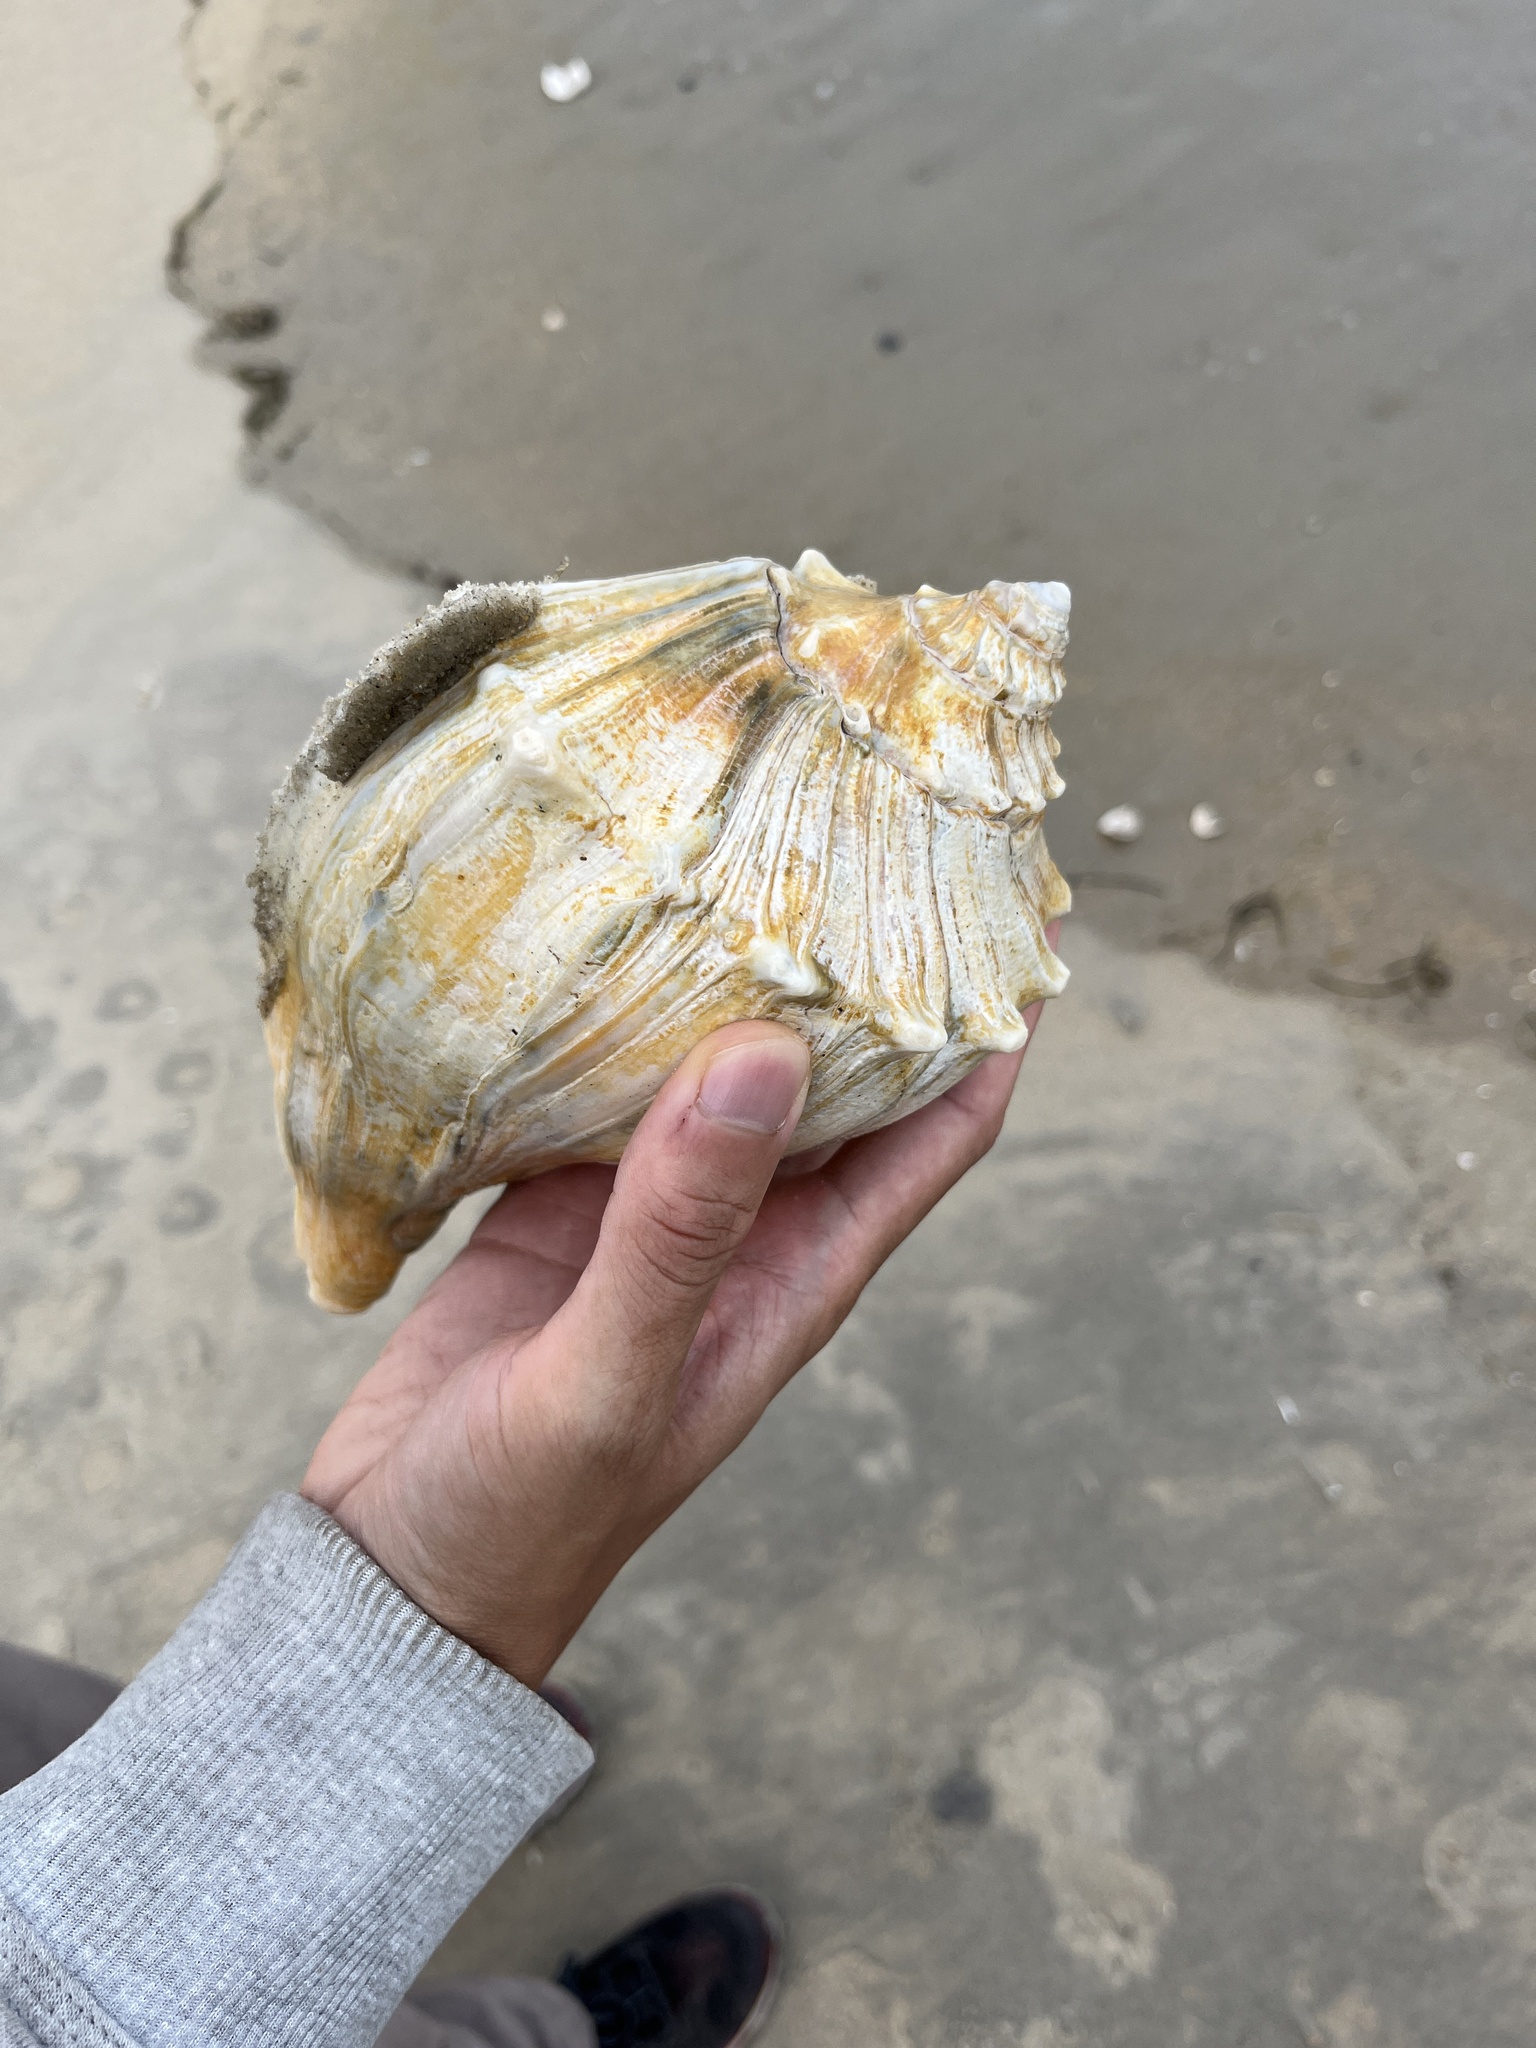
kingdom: Animalia
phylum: Mollusca
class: Gastropoda
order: Neogastropoda
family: Busyconidae
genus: Busycon
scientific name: Busycon carica
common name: Knobbed whelk
